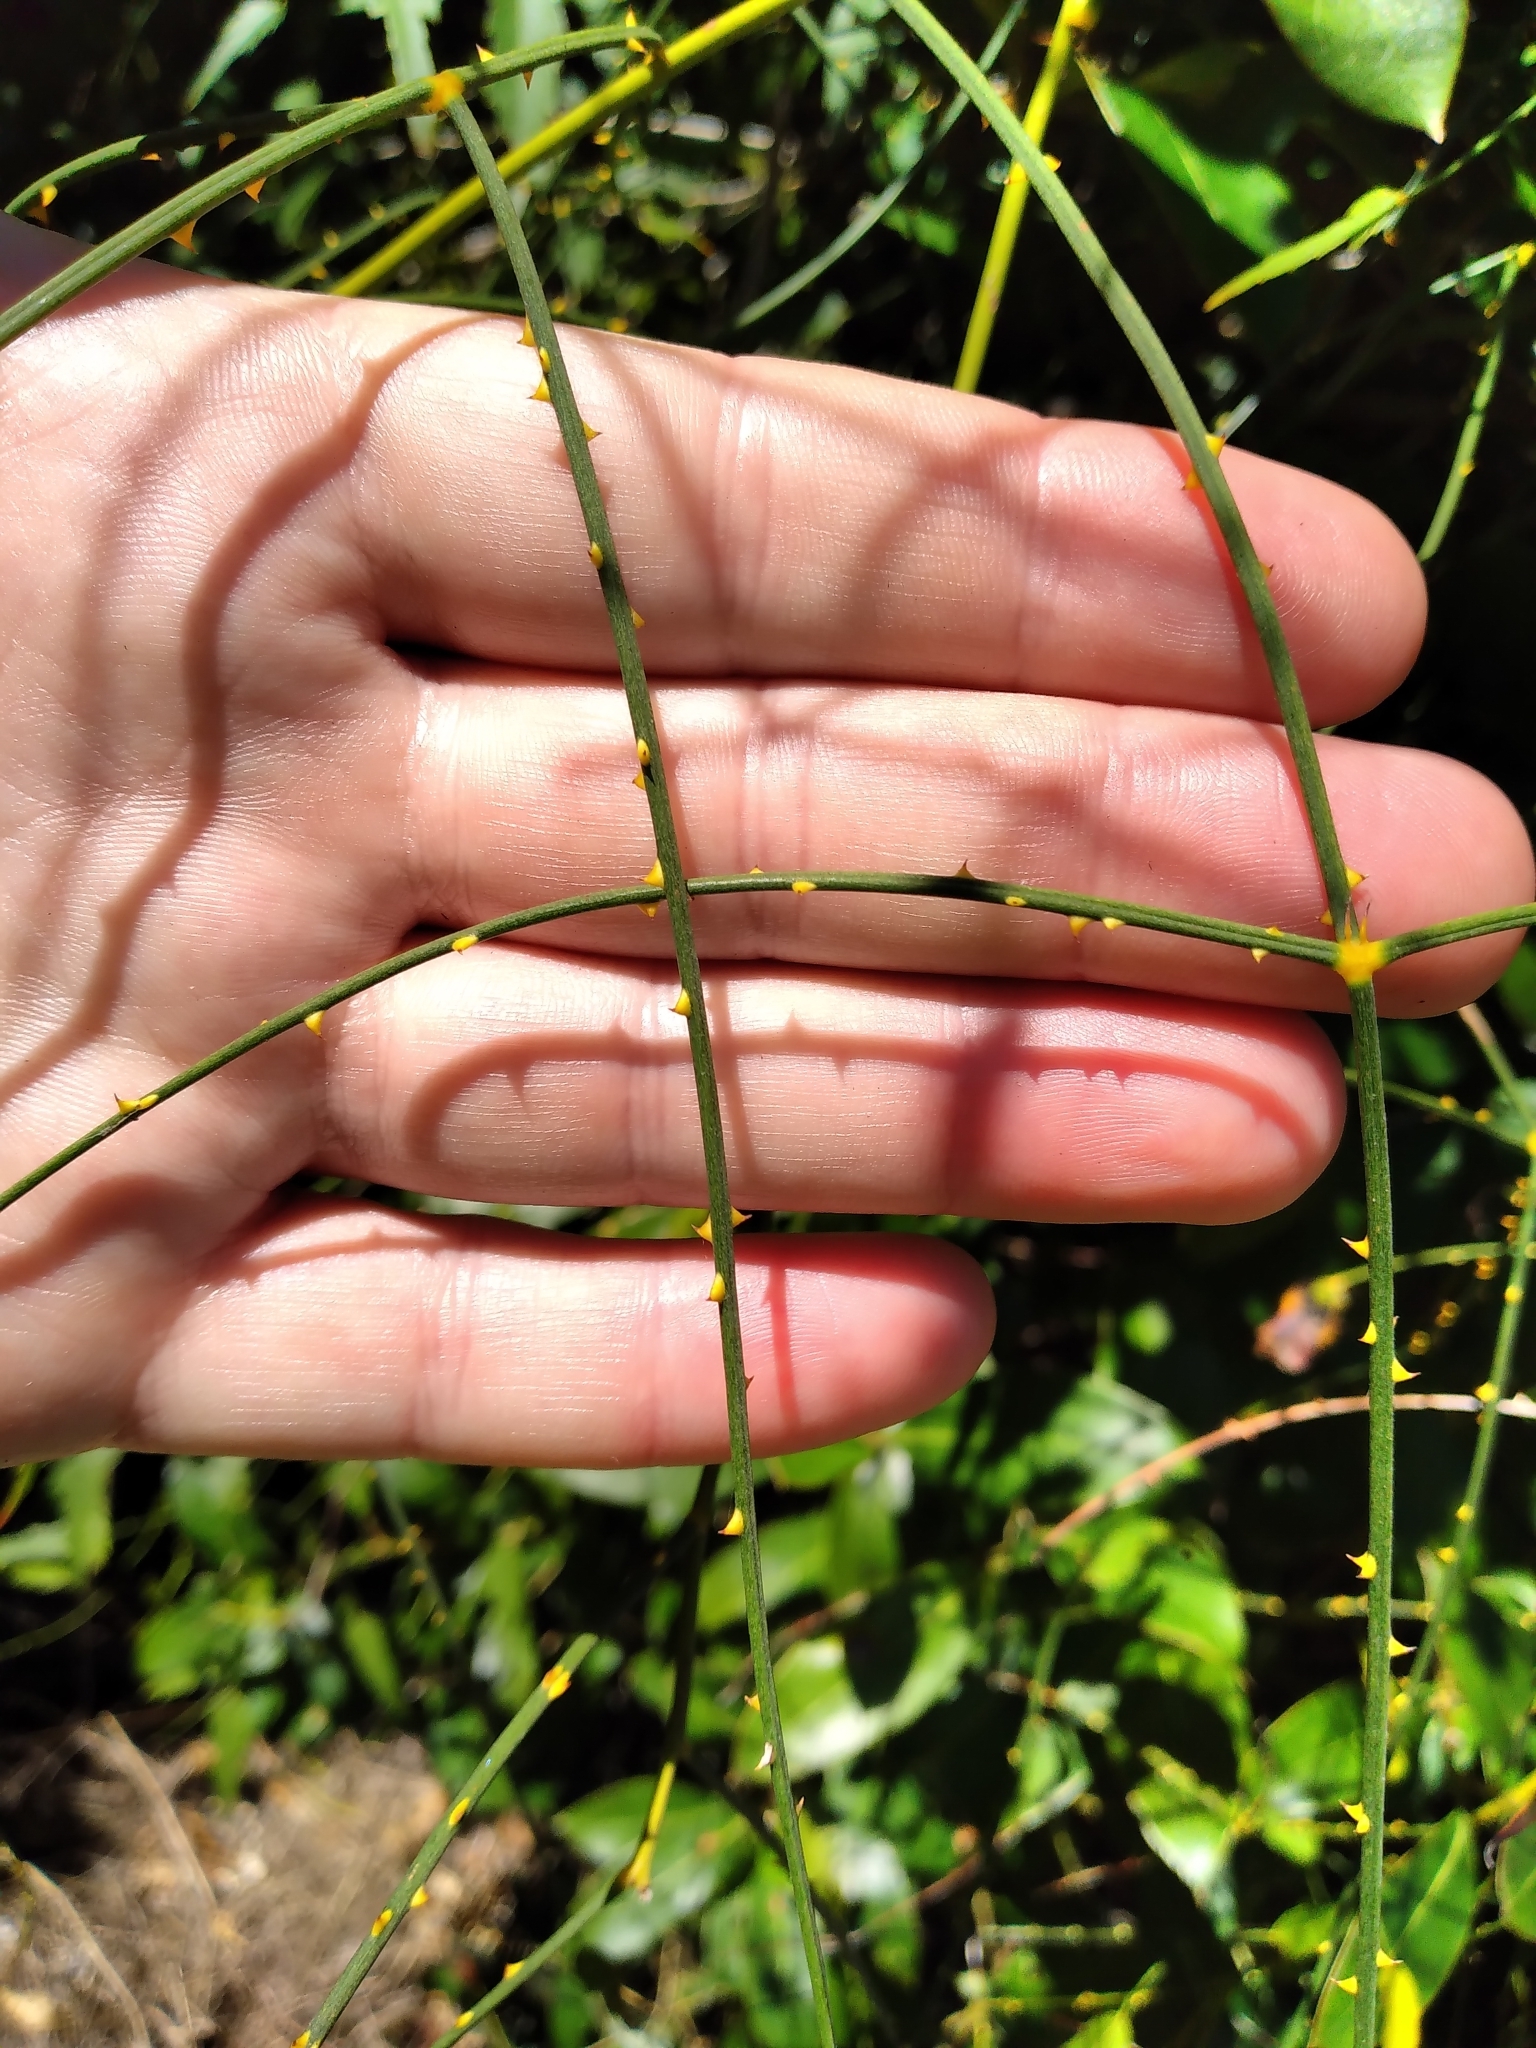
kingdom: Plantae
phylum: Tracheophyta
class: Magnoliopsida
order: Rosales
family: Rosaceae
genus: Rubus
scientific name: Rubus squarrosus
